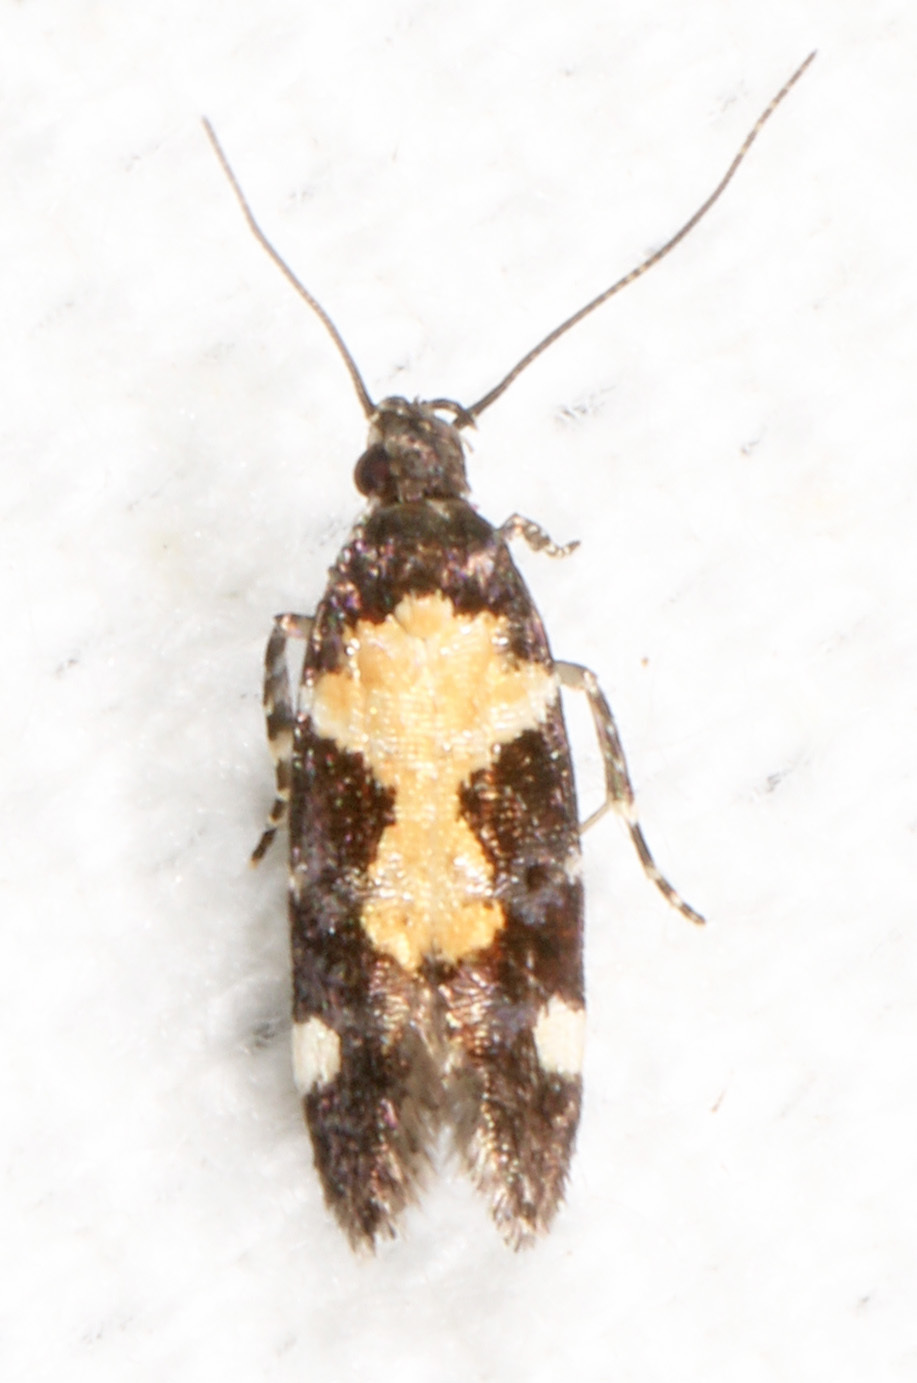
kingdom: Animalia
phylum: Arthropoda
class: Insecta
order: Lepidoptera
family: Gelechiidae
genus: Stegasta
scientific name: Stegasta bosqueella
